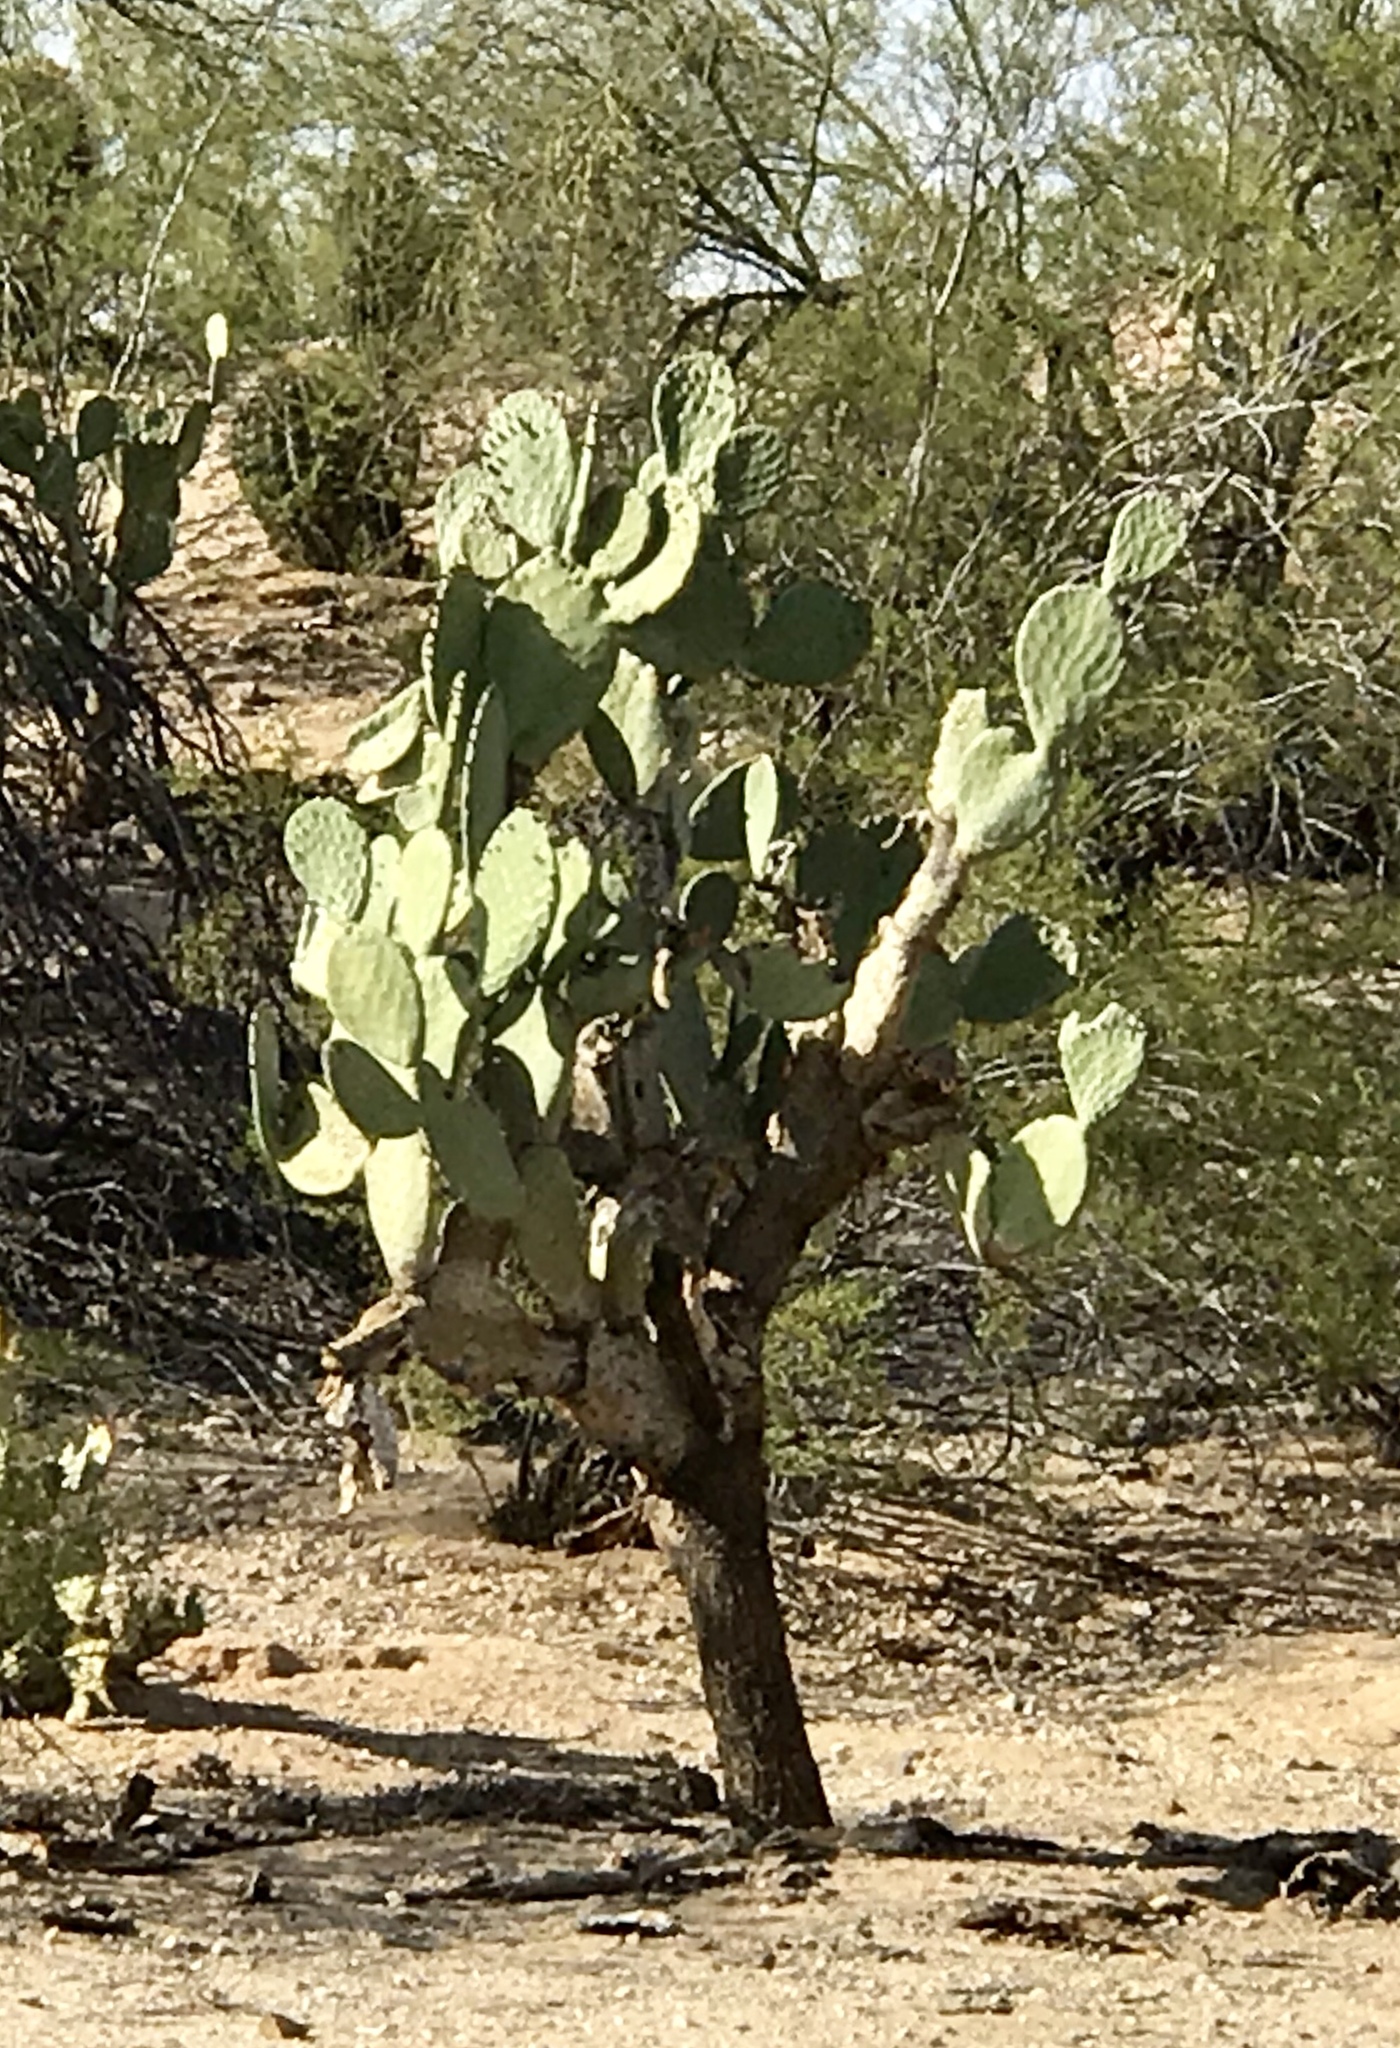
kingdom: Plantae
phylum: Tracheophyta
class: Magnoliopsida
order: Caryophyllales
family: Cactaceae
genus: Opuntia
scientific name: Opuntia ficus-indica
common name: Barbary fig
